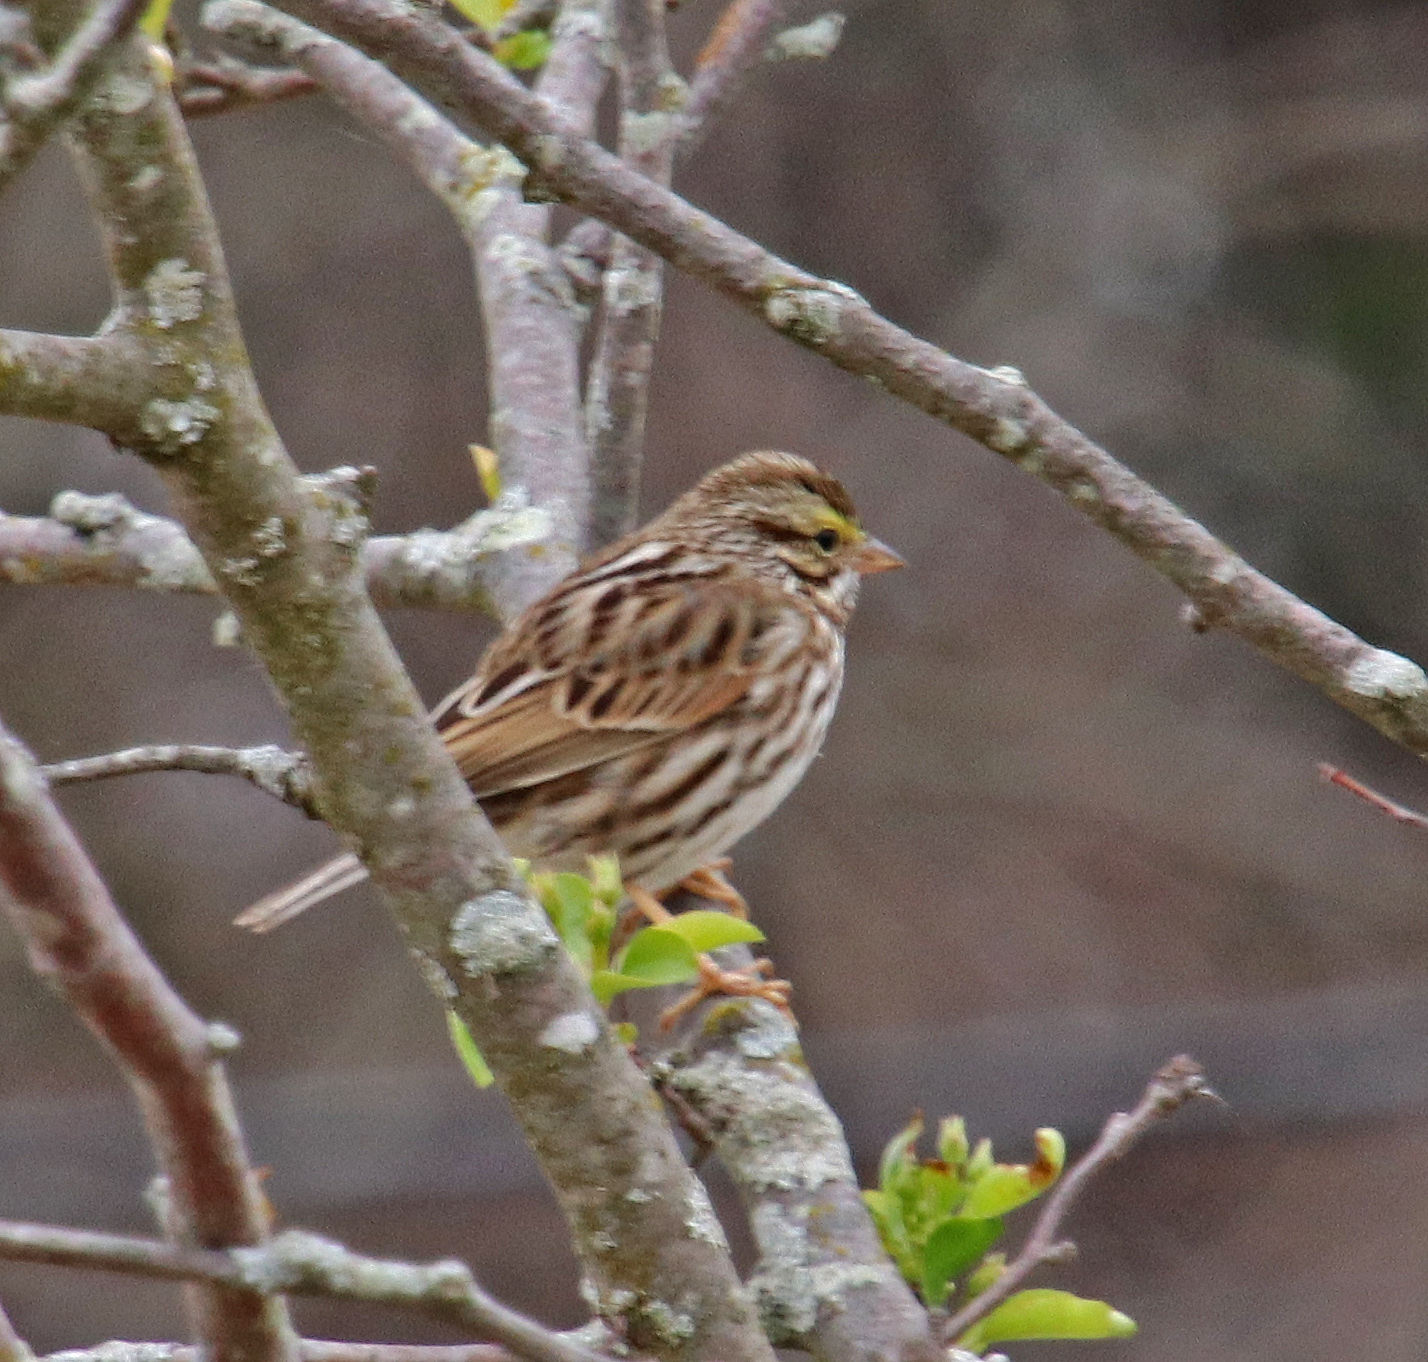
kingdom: Animalia
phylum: Chordata
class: Aves
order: Passeriformes
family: Passerellidae
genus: Passerculus
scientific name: Passerculus sandwichensis
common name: Savannah sparrow
